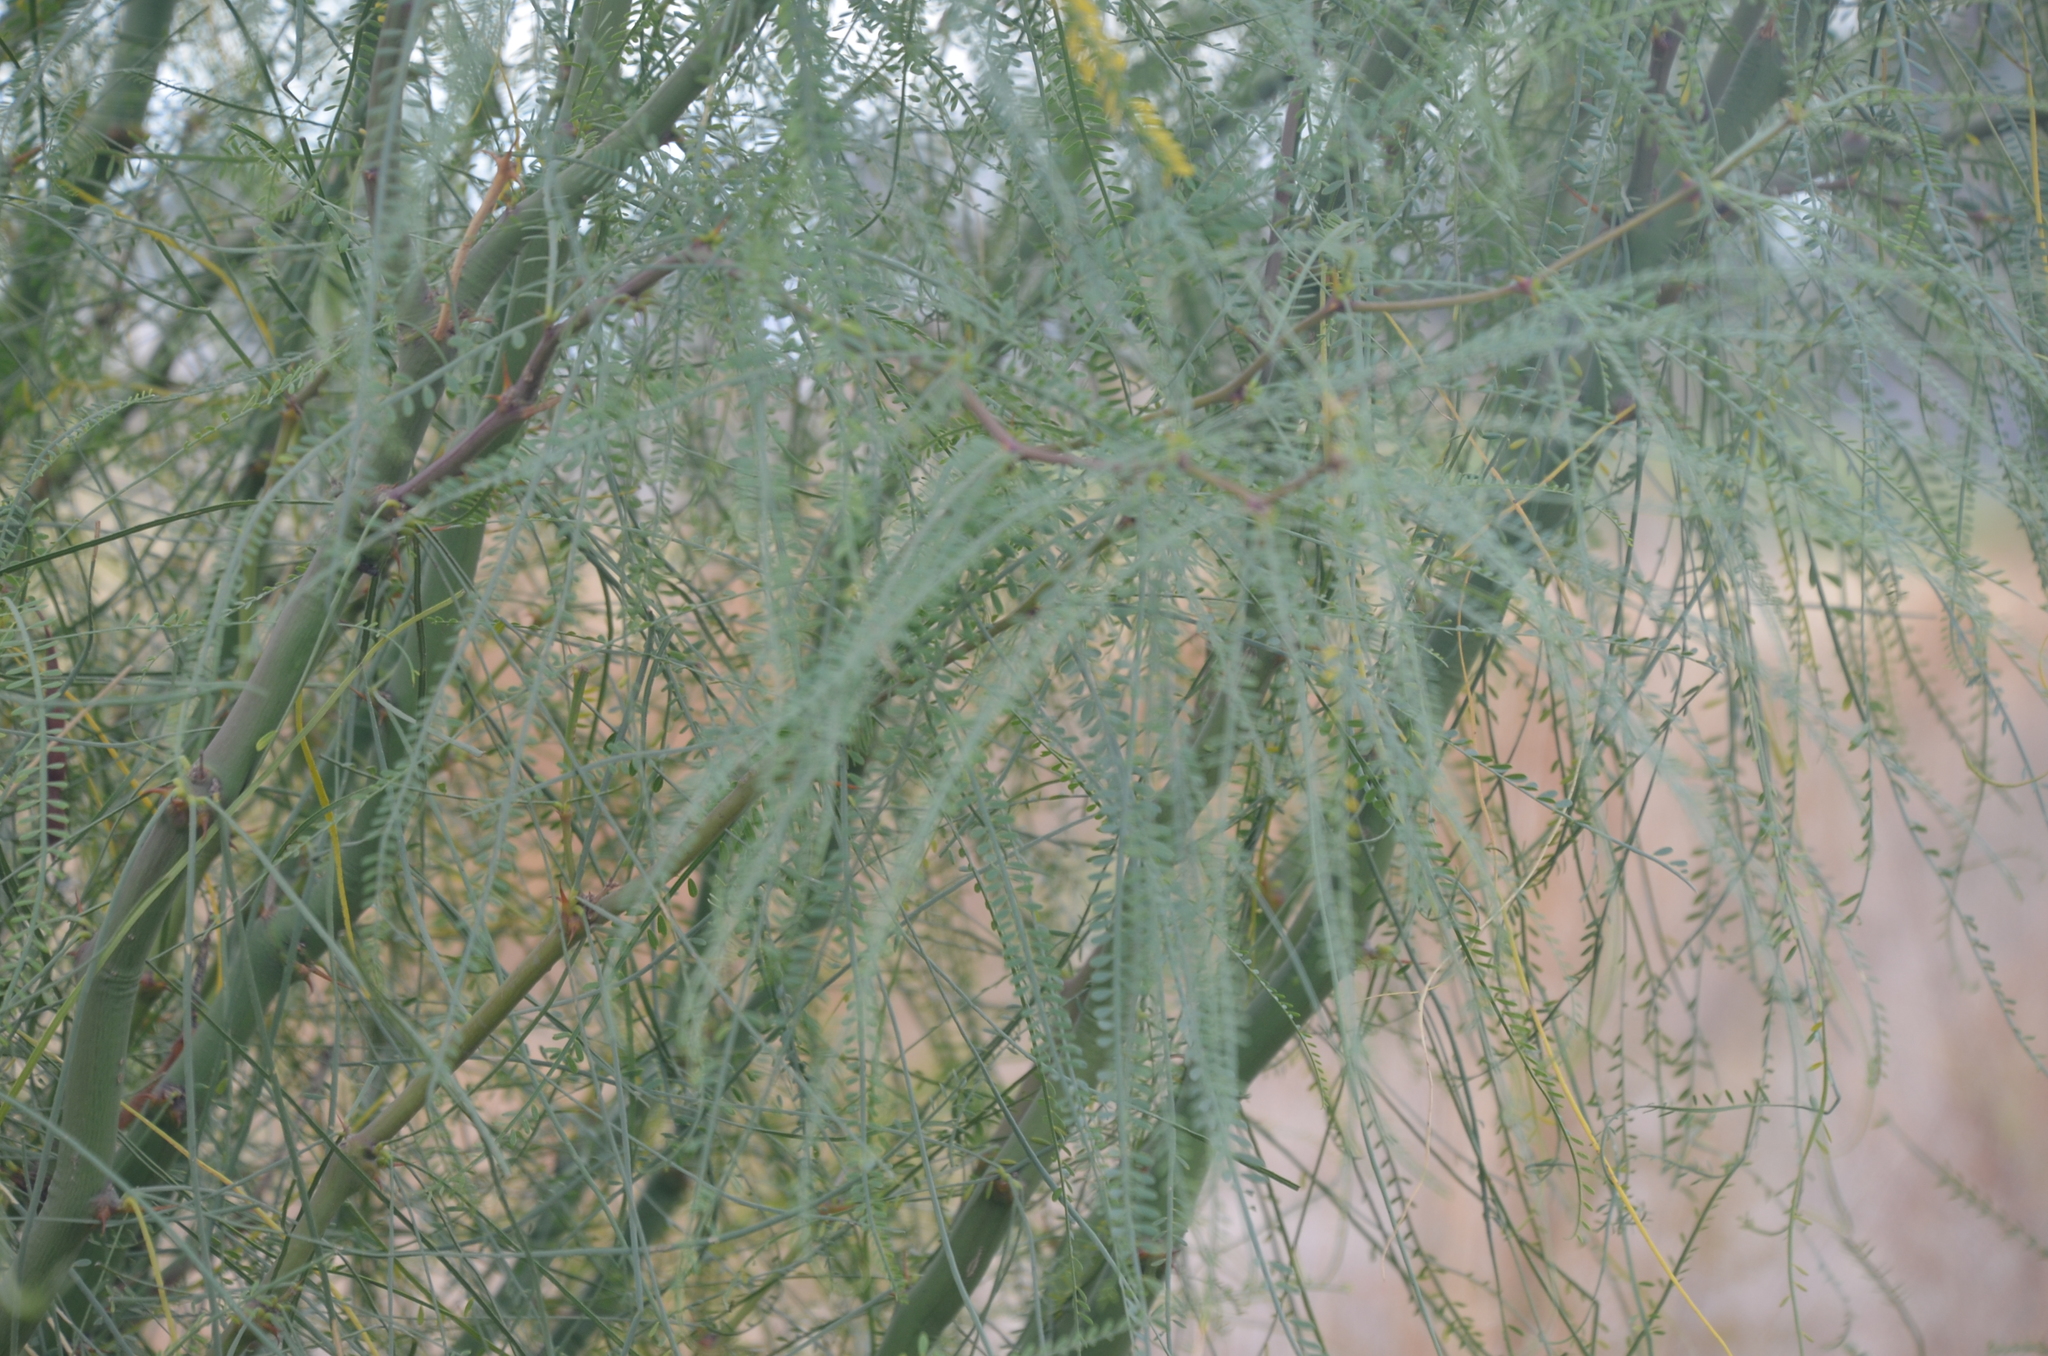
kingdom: Plantae
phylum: Tracheophyta
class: Magnoliopsida
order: Fabales
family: Fabaceae
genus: Parkinsonia
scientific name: Parkinsonia aculeata
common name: Jerusalem thorn
